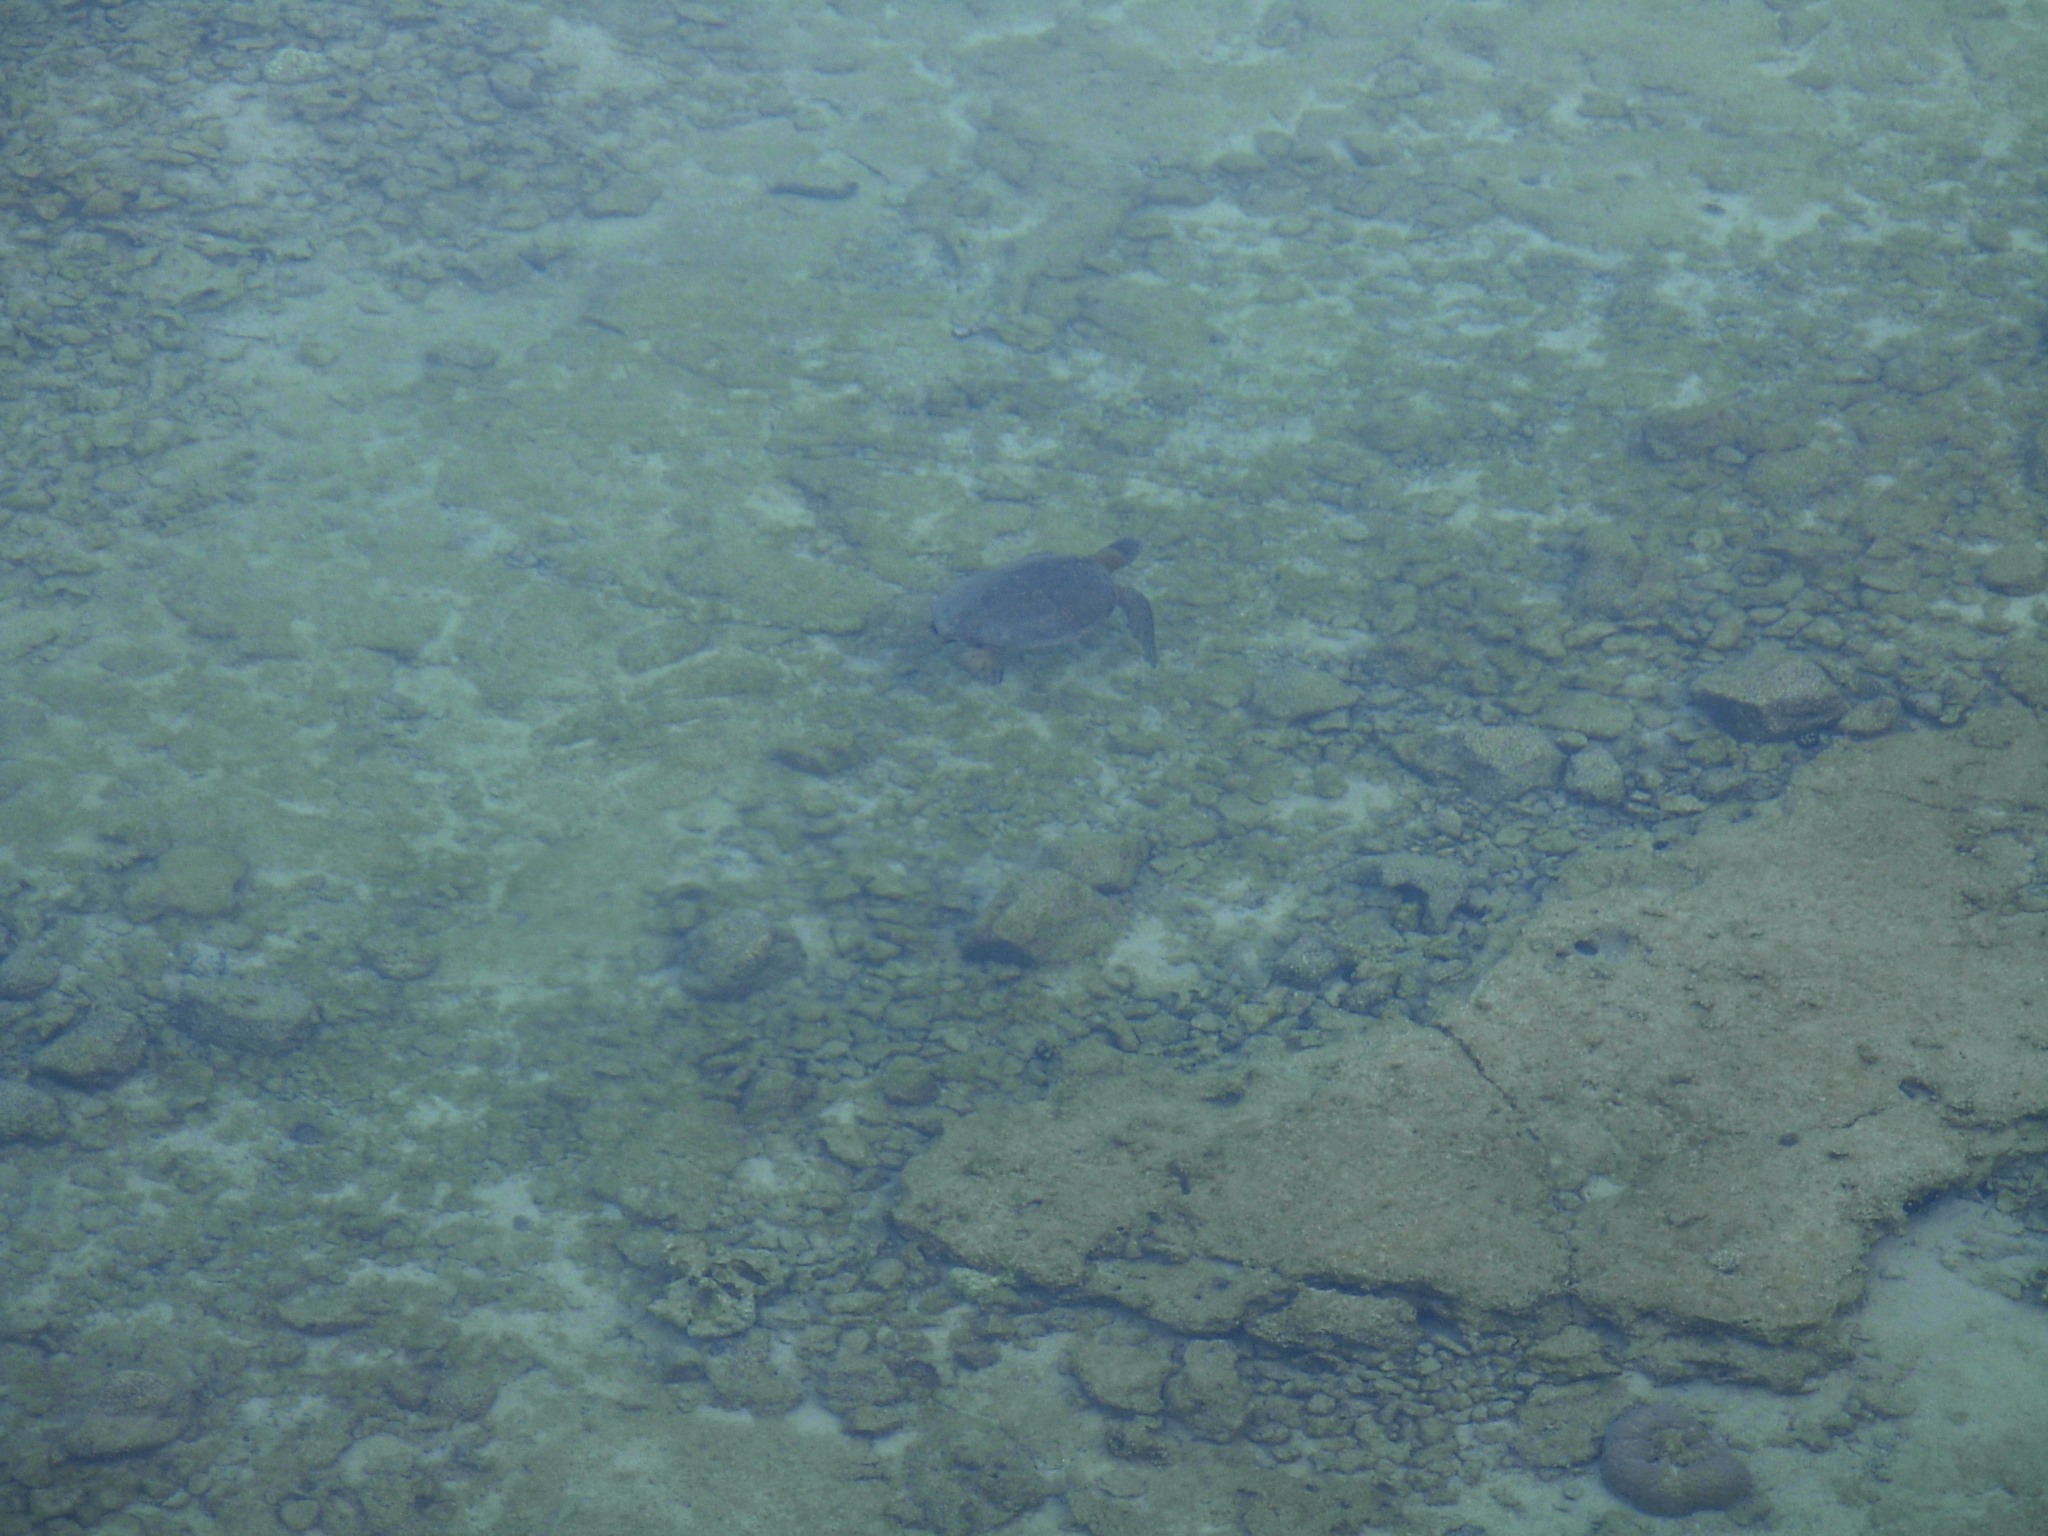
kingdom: Animalia
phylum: Chordata
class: Testudines
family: Cheloniidae
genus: Chelonia
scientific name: Chelonia mydas
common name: Green turtle
